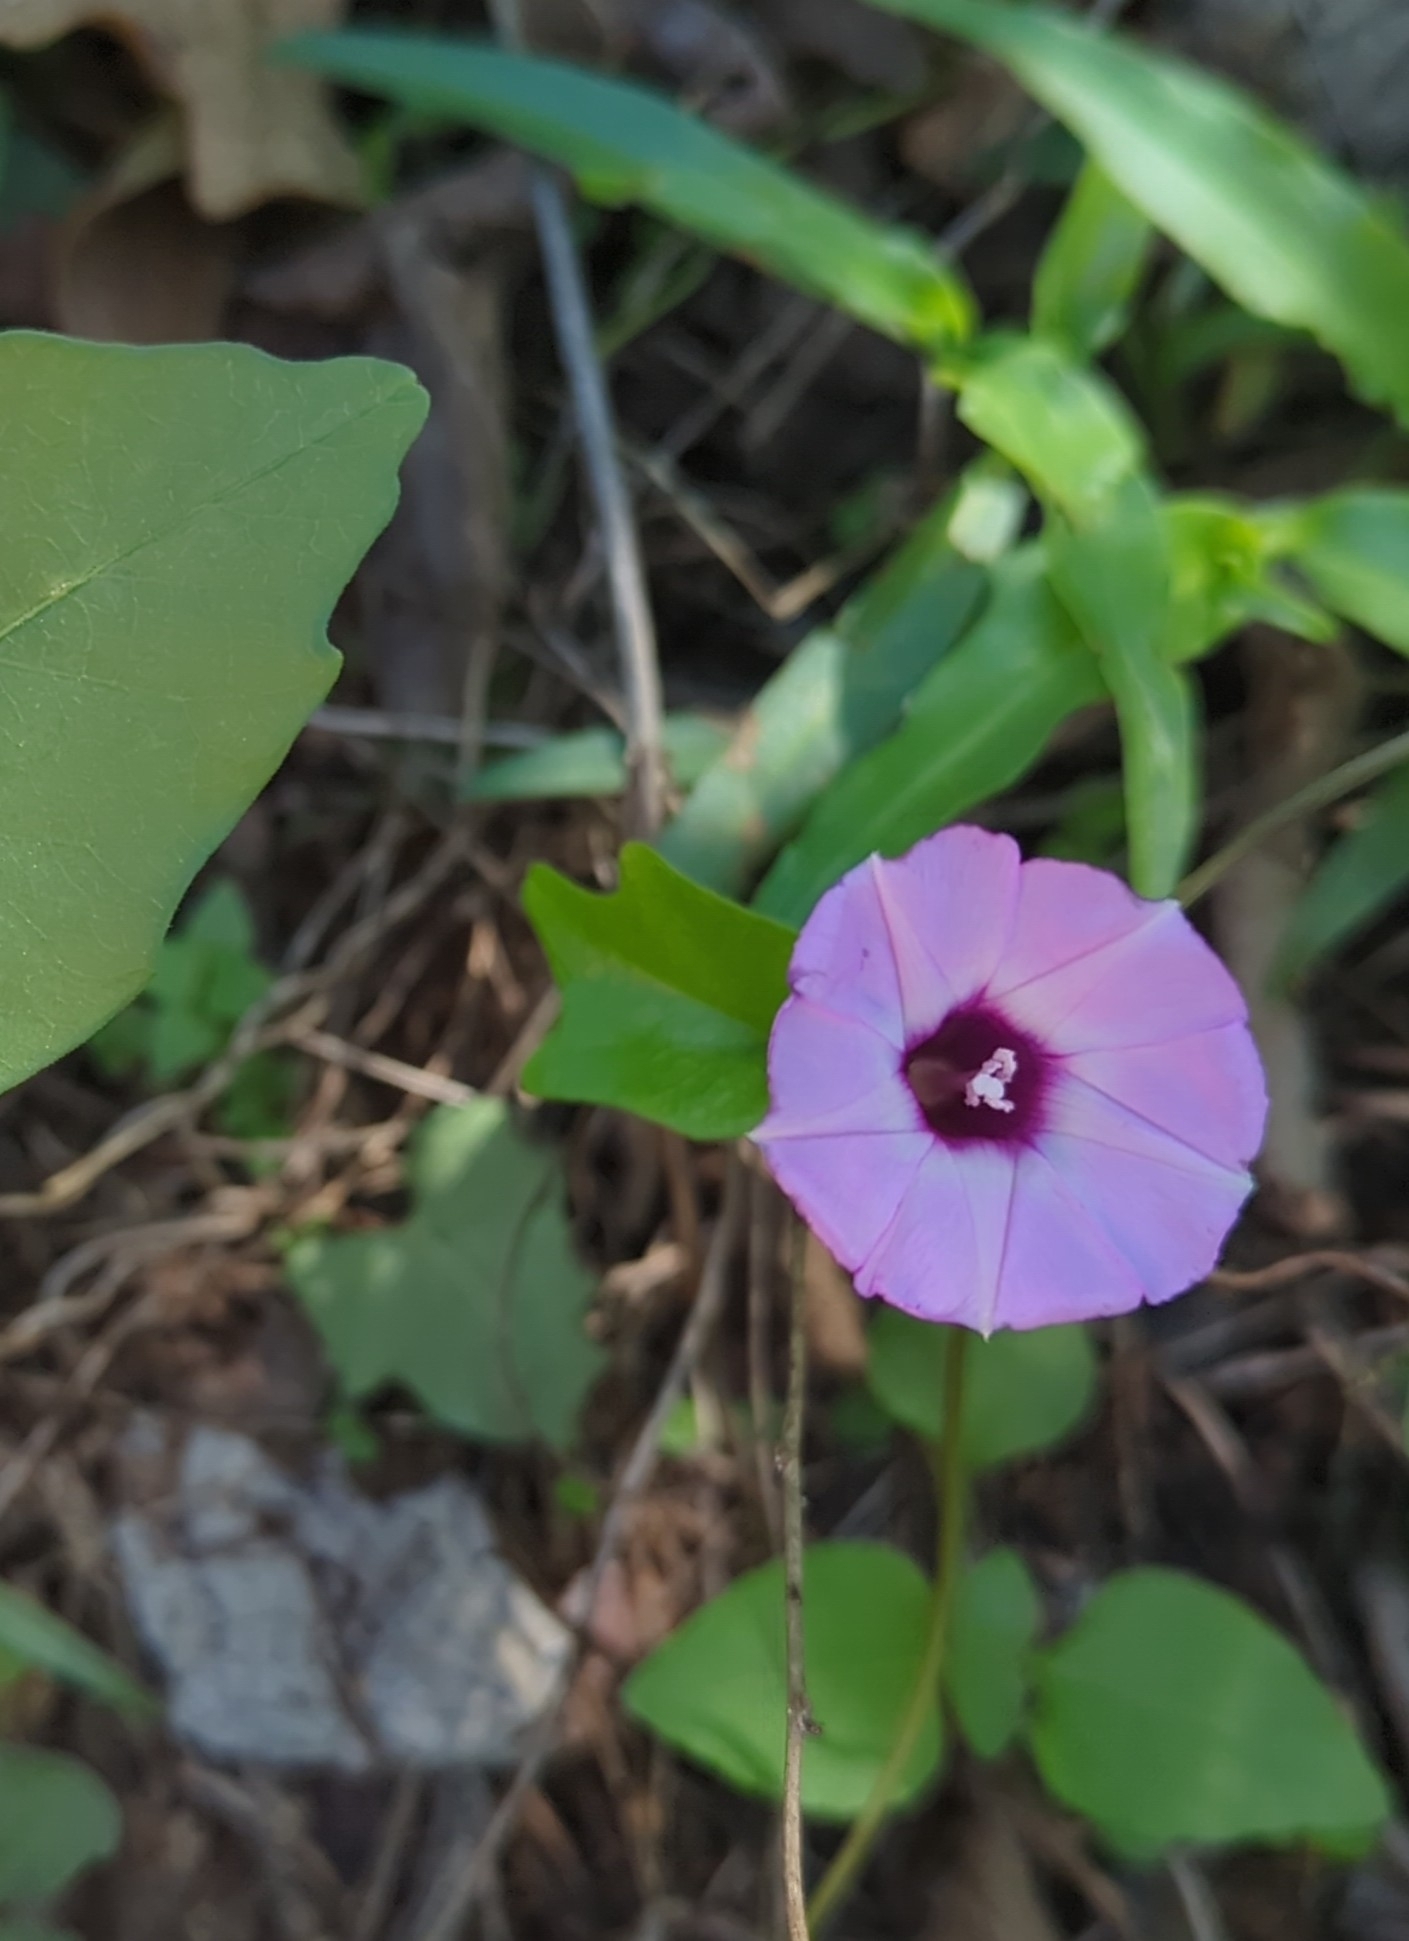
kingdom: Plantae
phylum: Tracheophyta
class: Magnoliopsida
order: Solanales
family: Convolvulaceae
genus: Ipomoea
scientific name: Ipomoea cordatotriloba
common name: Cotton morning glory
